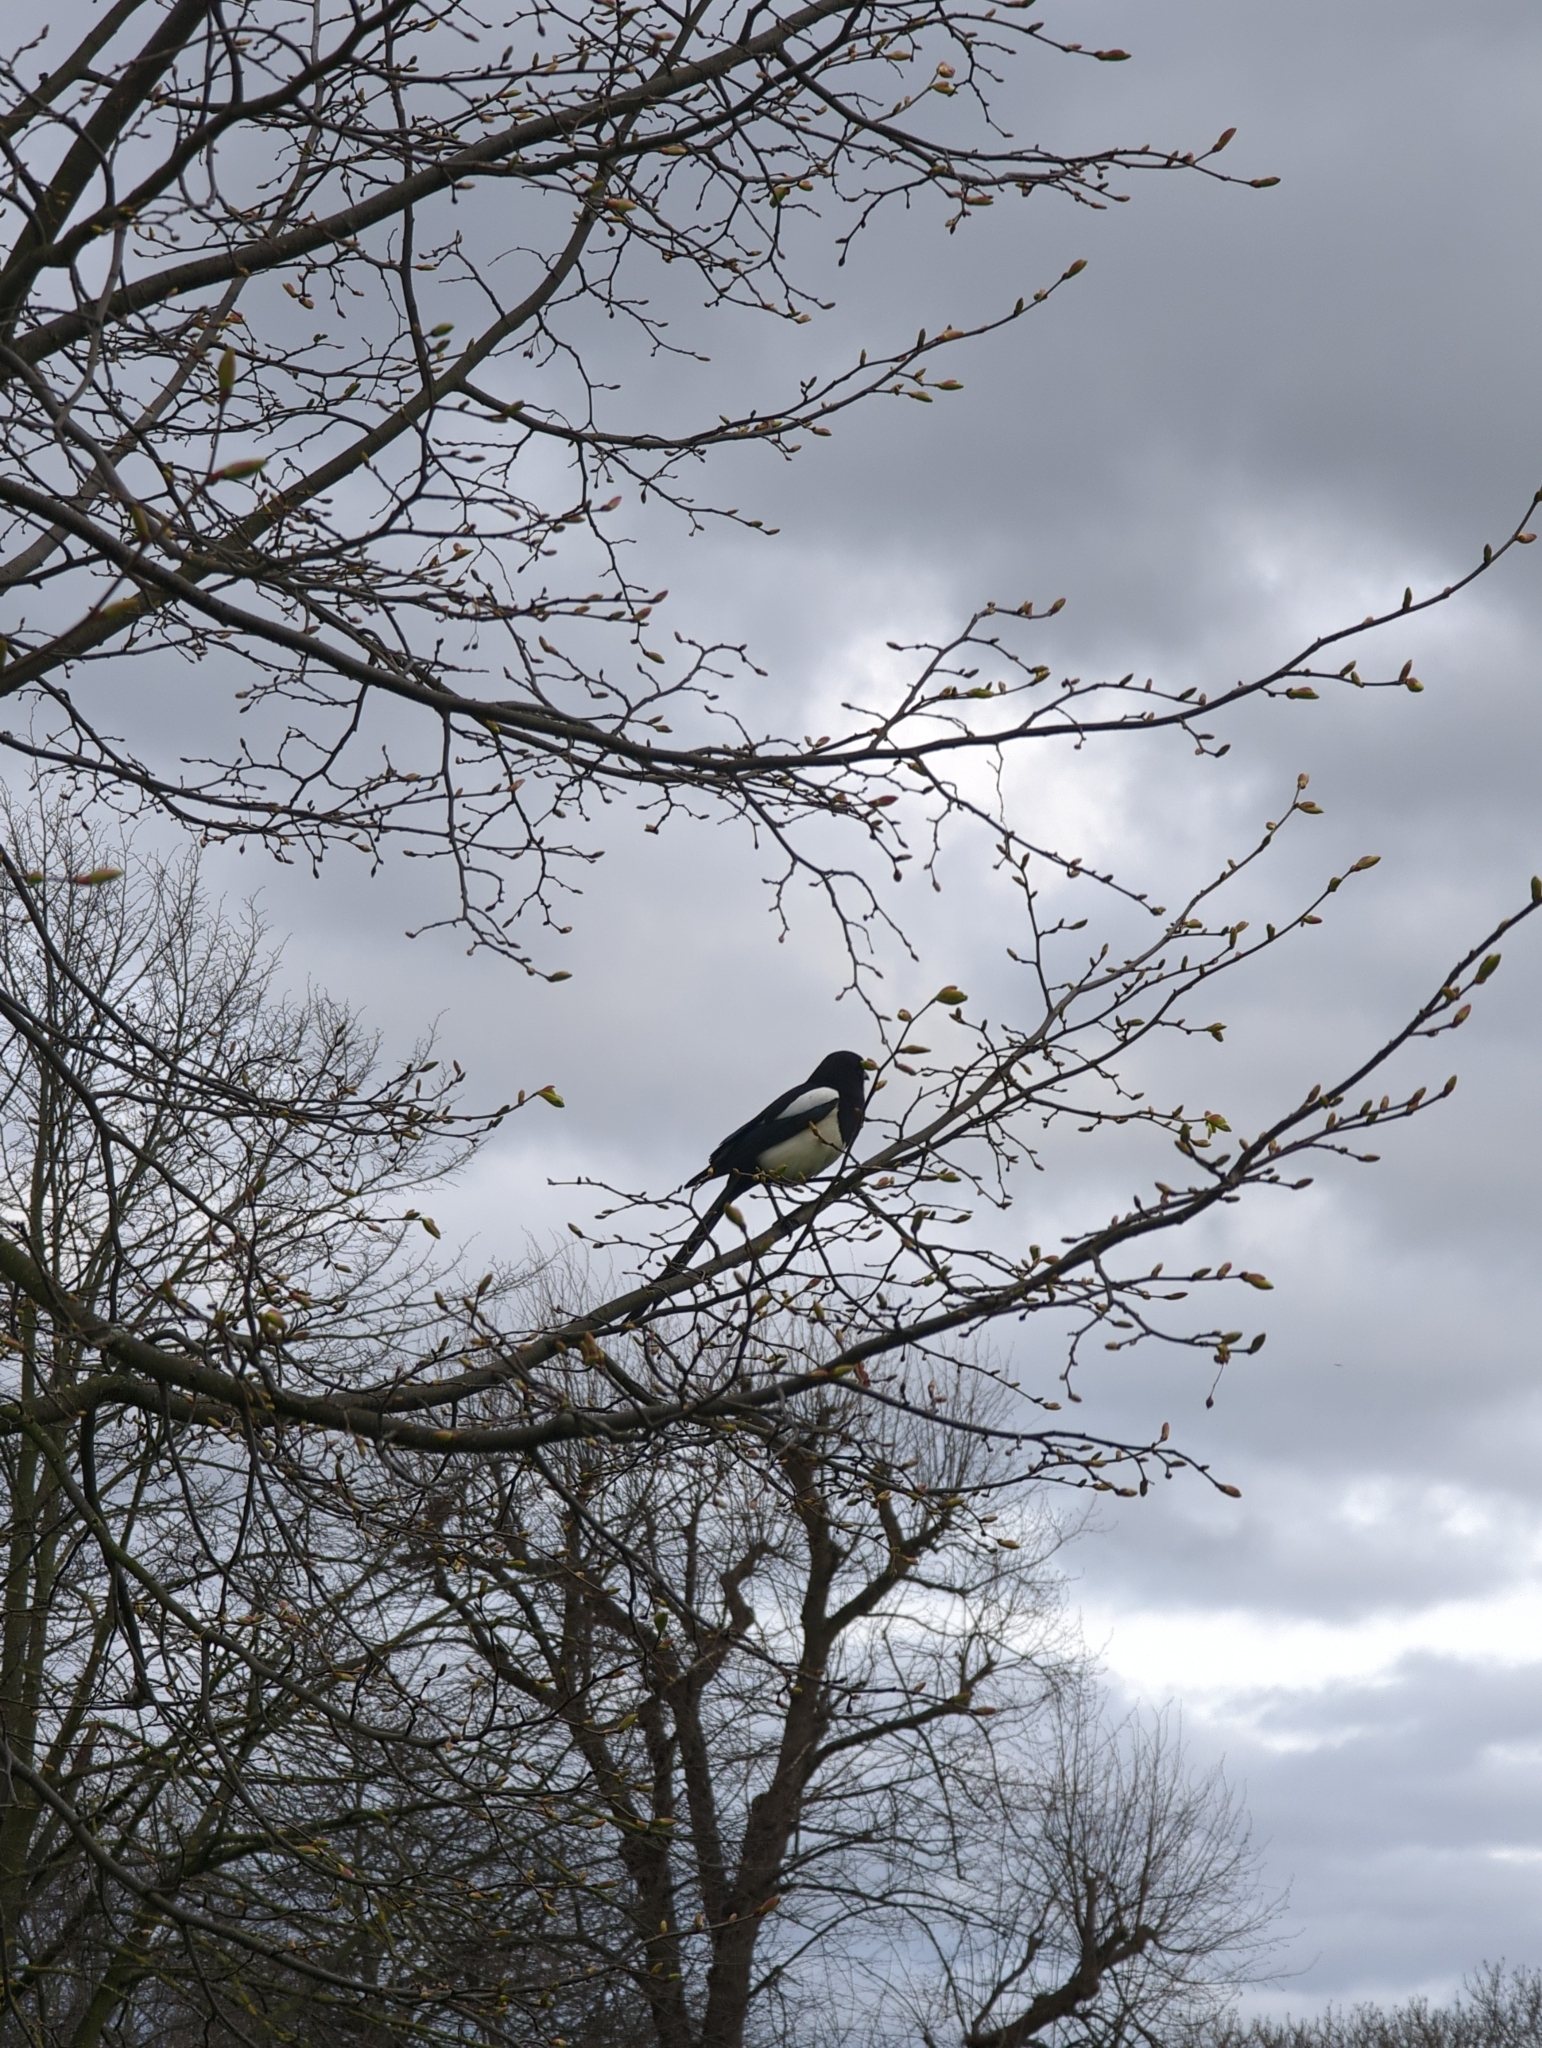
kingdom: Animalia
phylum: Chordata
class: Aves
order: Passeriformes
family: Corvidae
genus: Pica
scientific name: Pica pica
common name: Eurasian magpie
